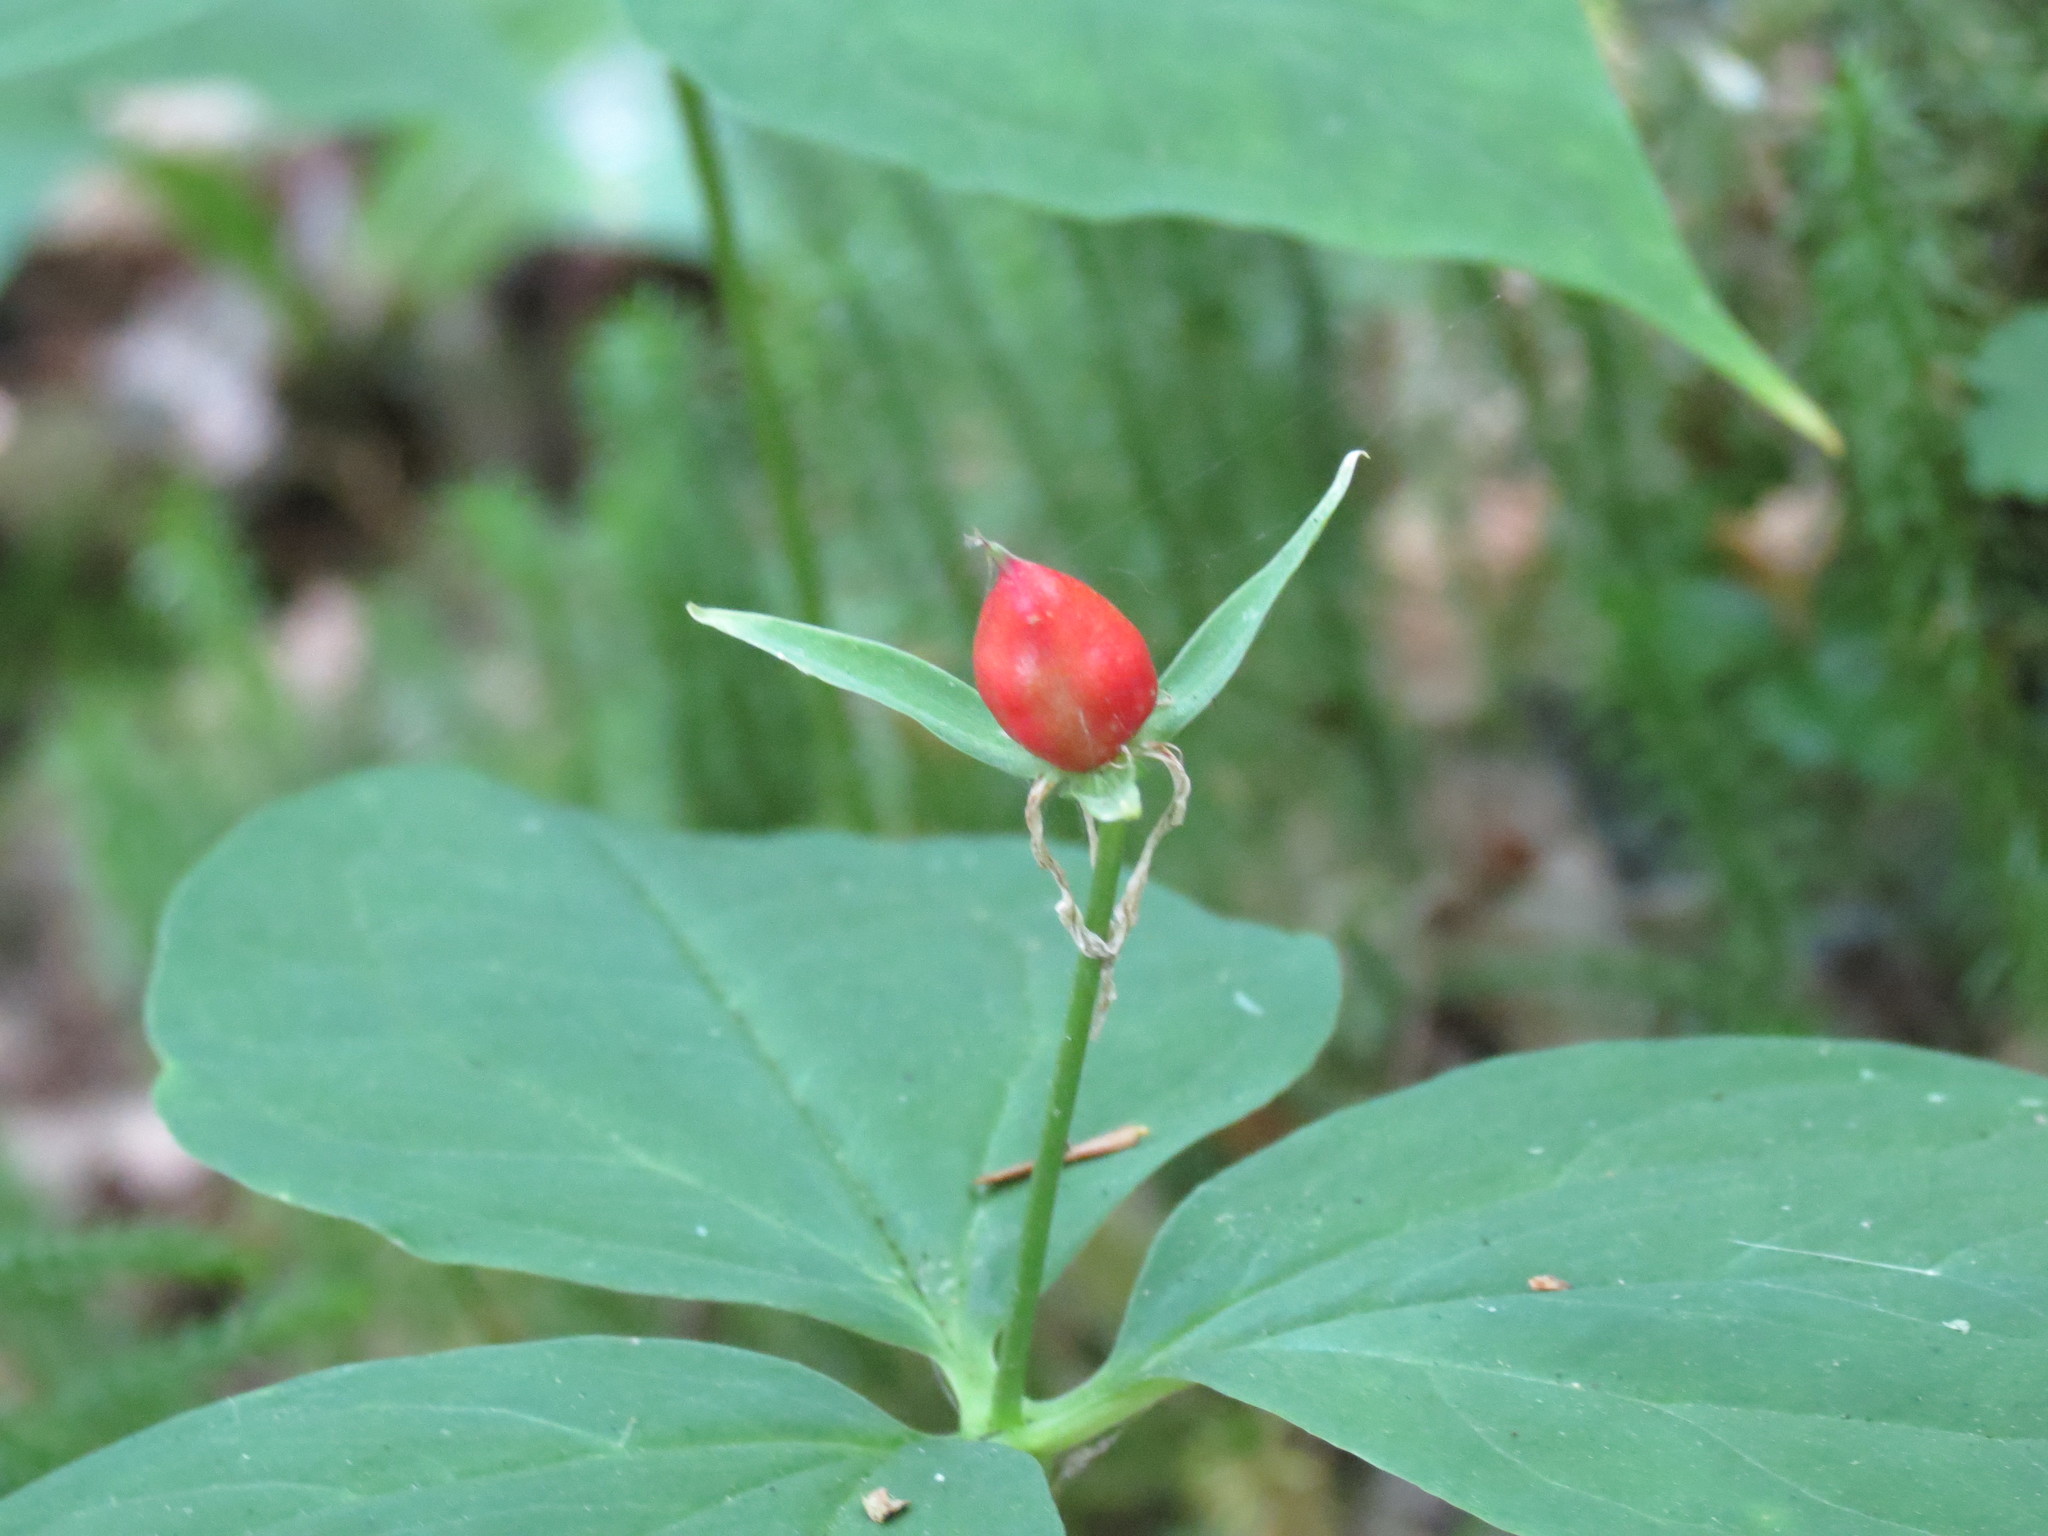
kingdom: Plantae
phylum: Tracheophyta
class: Liliopsida
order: Liliales
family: Melanthiaceae
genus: Trillium
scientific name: Trillium undulatum
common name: Paint trillium
